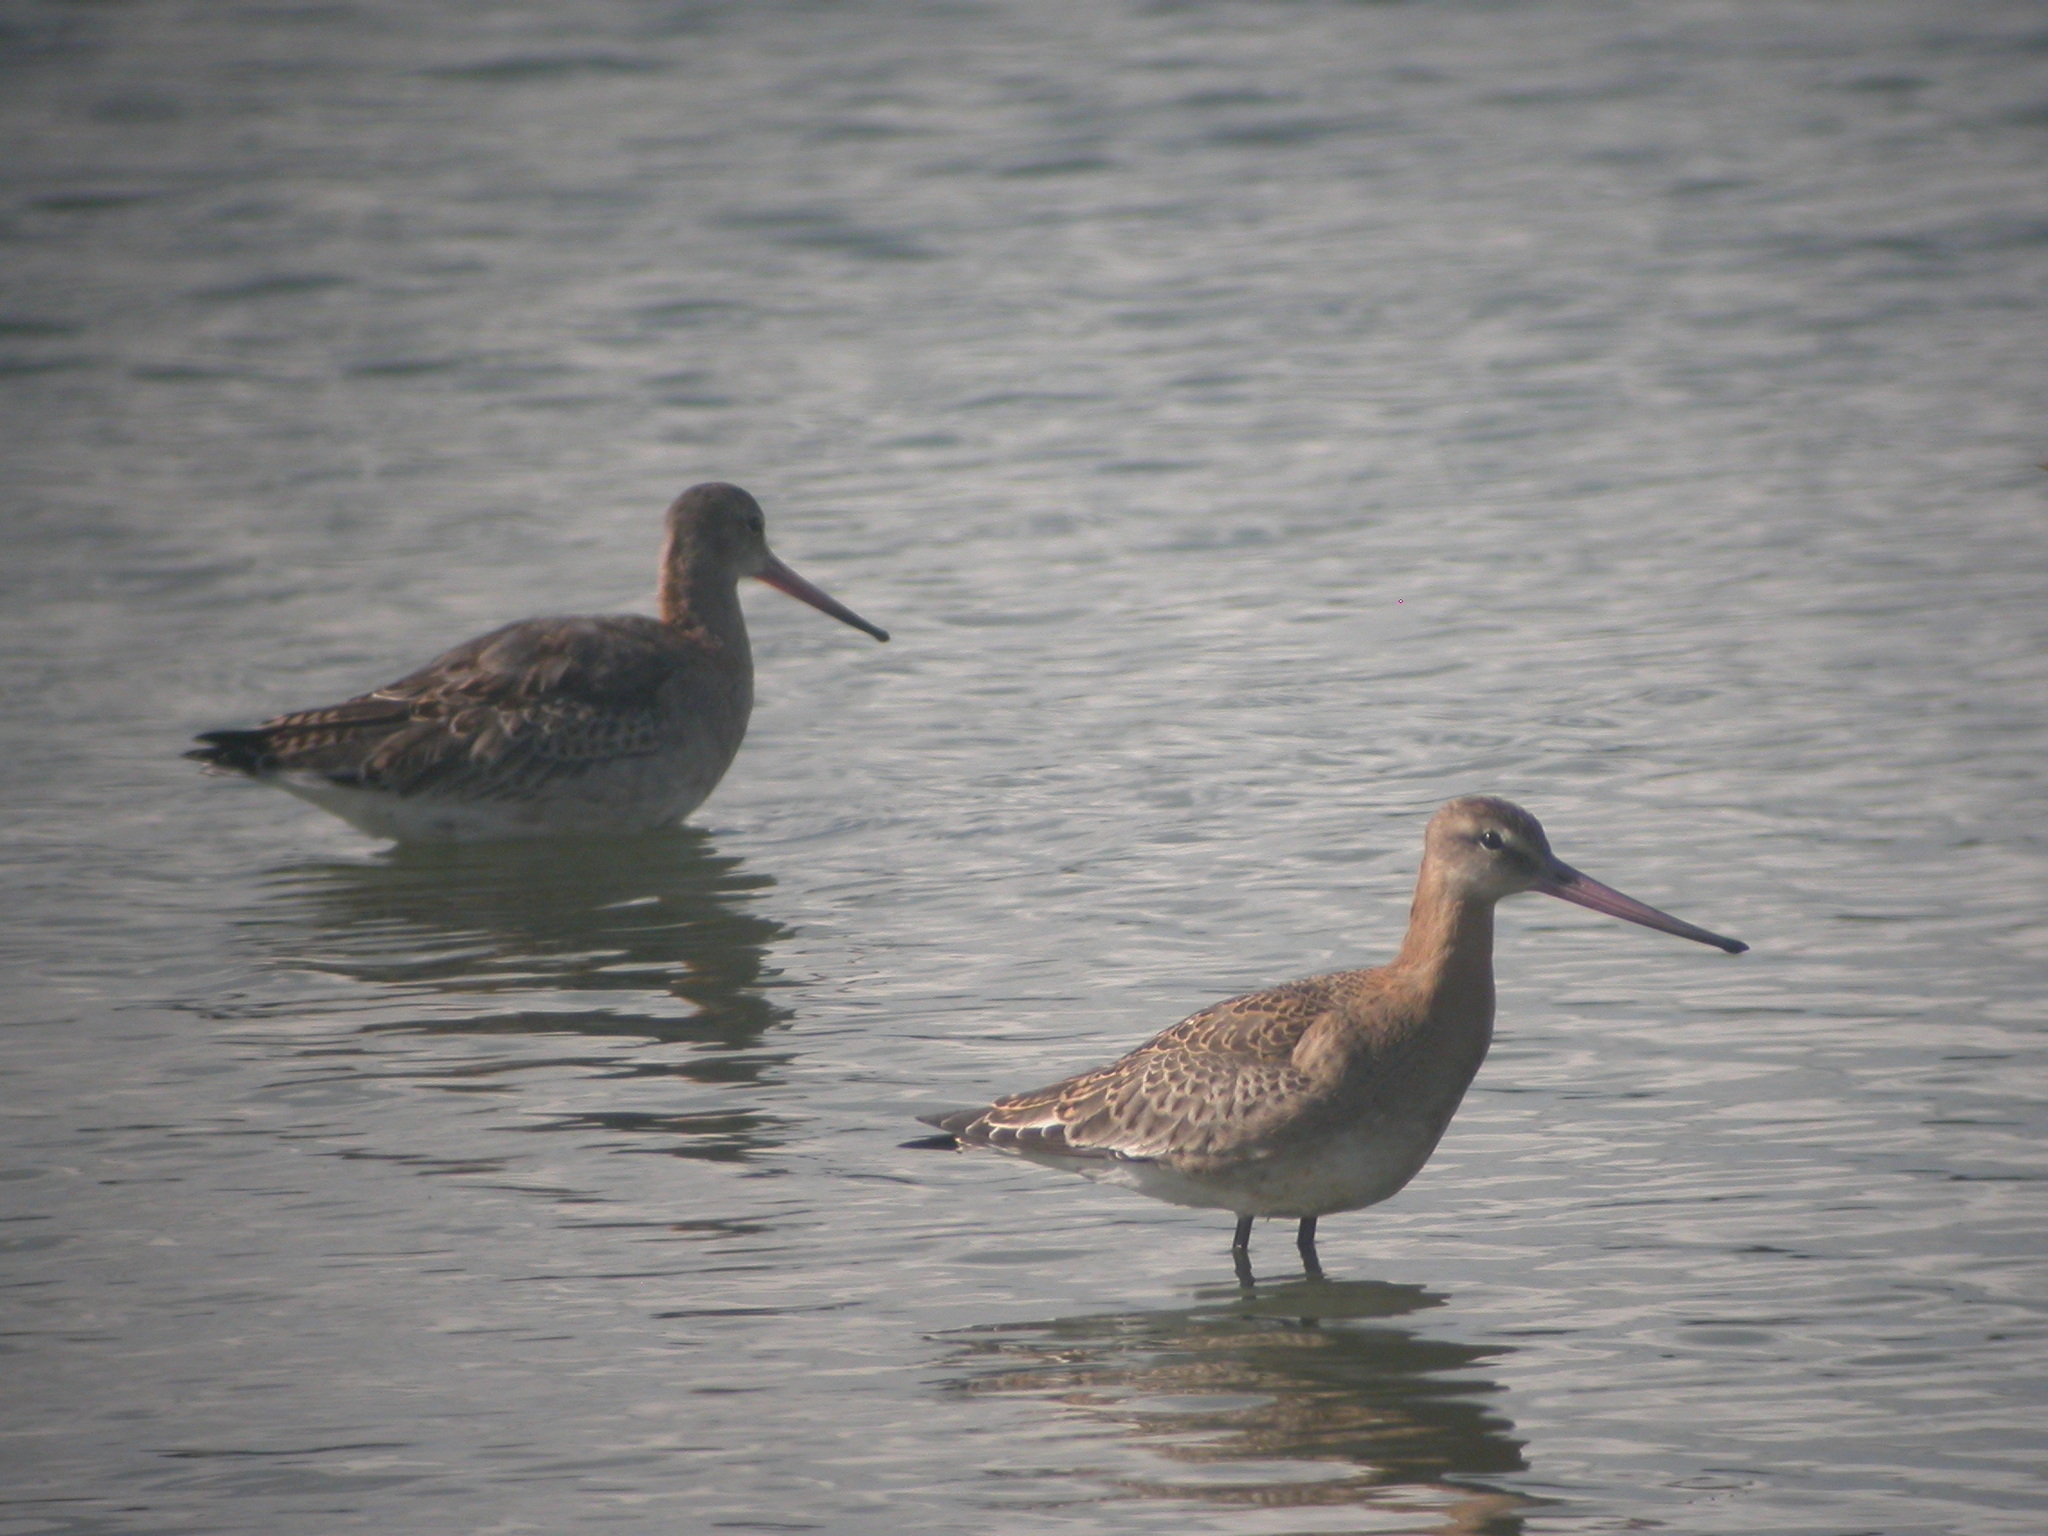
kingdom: Animalia
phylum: Chordata
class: Aves
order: Charadriiformes
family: Scolopacidae
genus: Limosa
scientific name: Limosa limosa
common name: Black-tailed godwit
